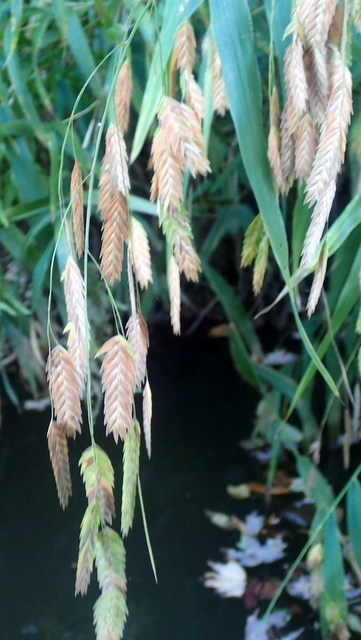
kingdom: Plantae
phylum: Tracheophyta
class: Liliopsida
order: Poales
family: Poaceae
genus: Chasmanthium
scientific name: Chasmanthium latifolium
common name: Broad-leaved chasmanthium
